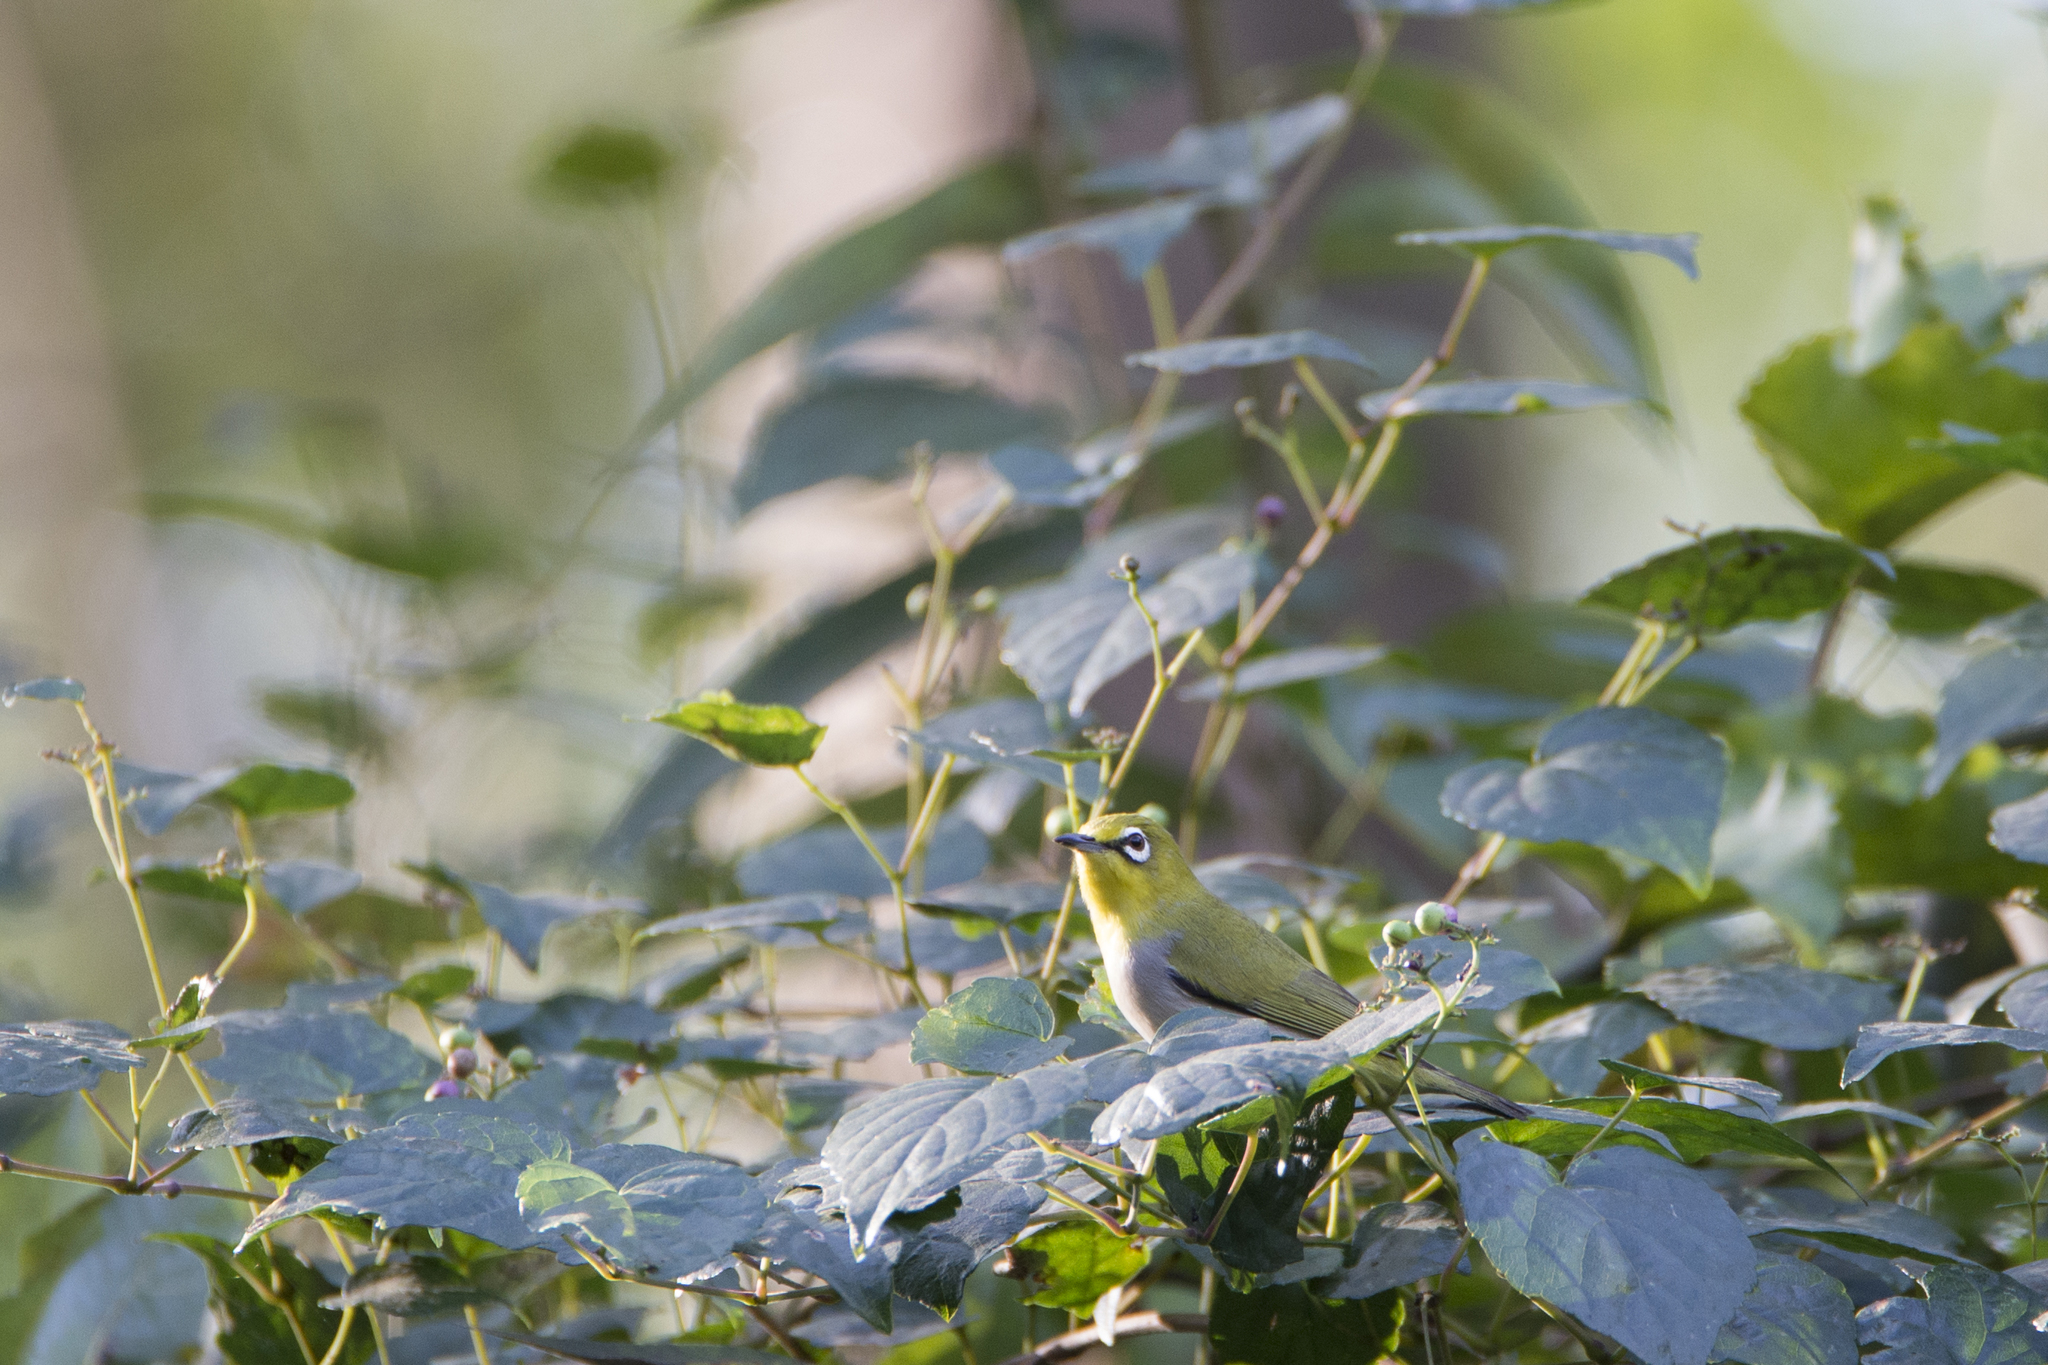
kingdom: Animalia
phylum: Chordata
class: Aves
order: Passeriformes
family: Zosteropidae
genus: Zosterops
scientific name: Zosterops simplex
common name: Swinhoe's white-eye
